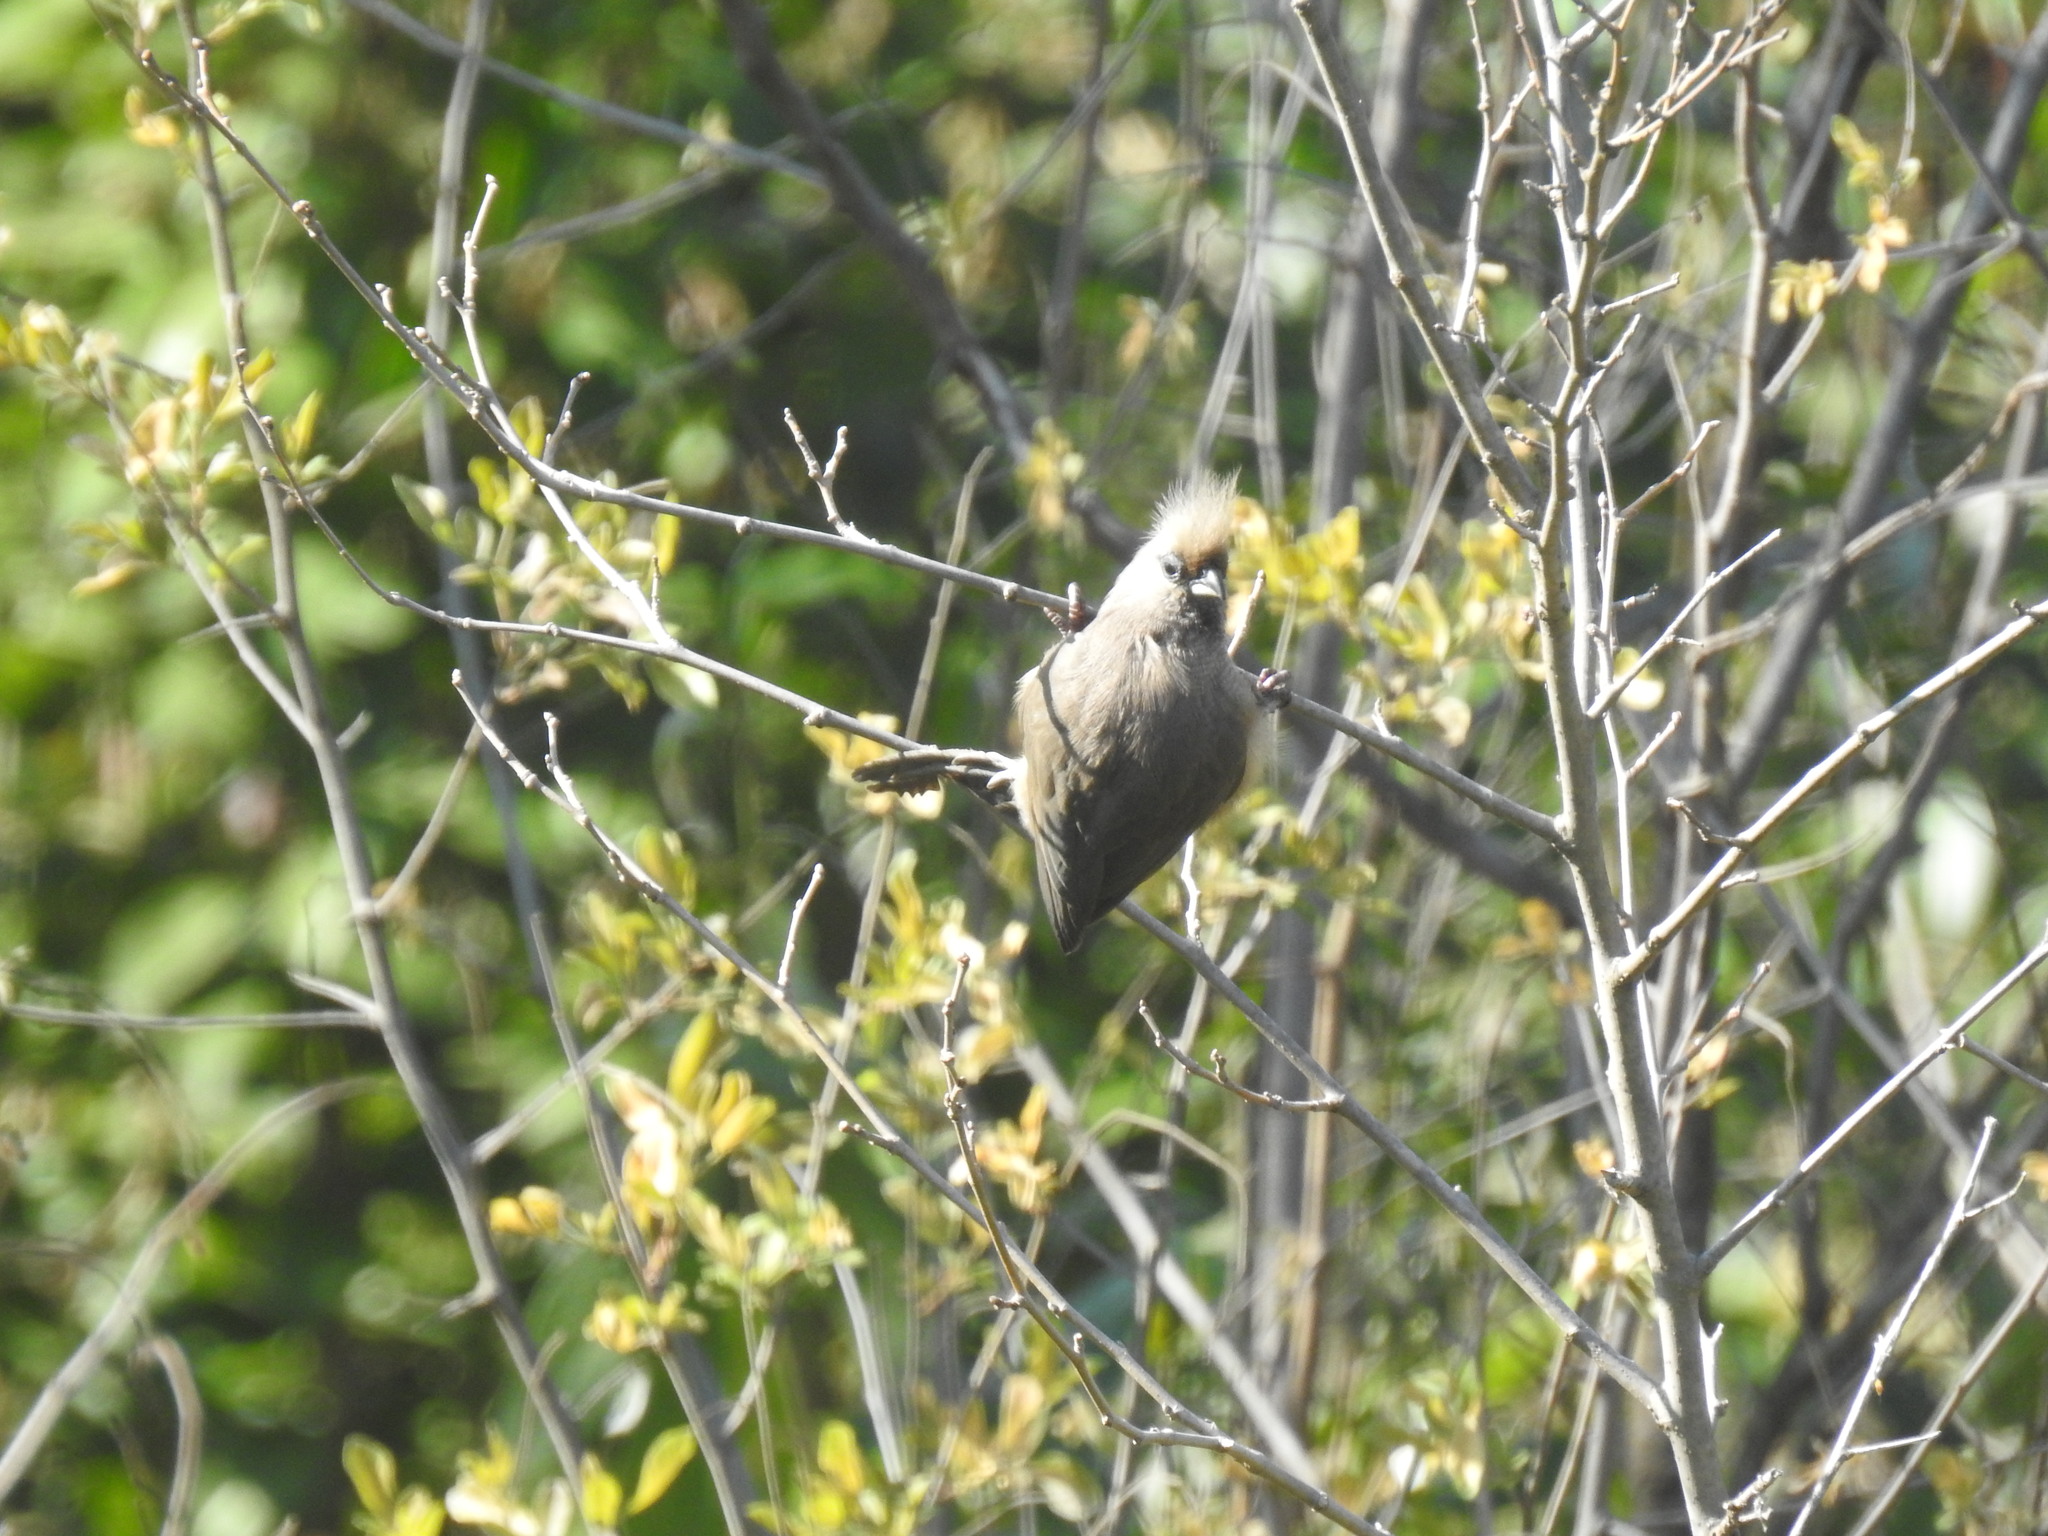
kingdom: Animalia
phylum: Chordata
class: Aves
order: Coliiformes
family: Coliidae
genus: Colius
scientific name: Colius striatus
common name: Speckled mousebird
